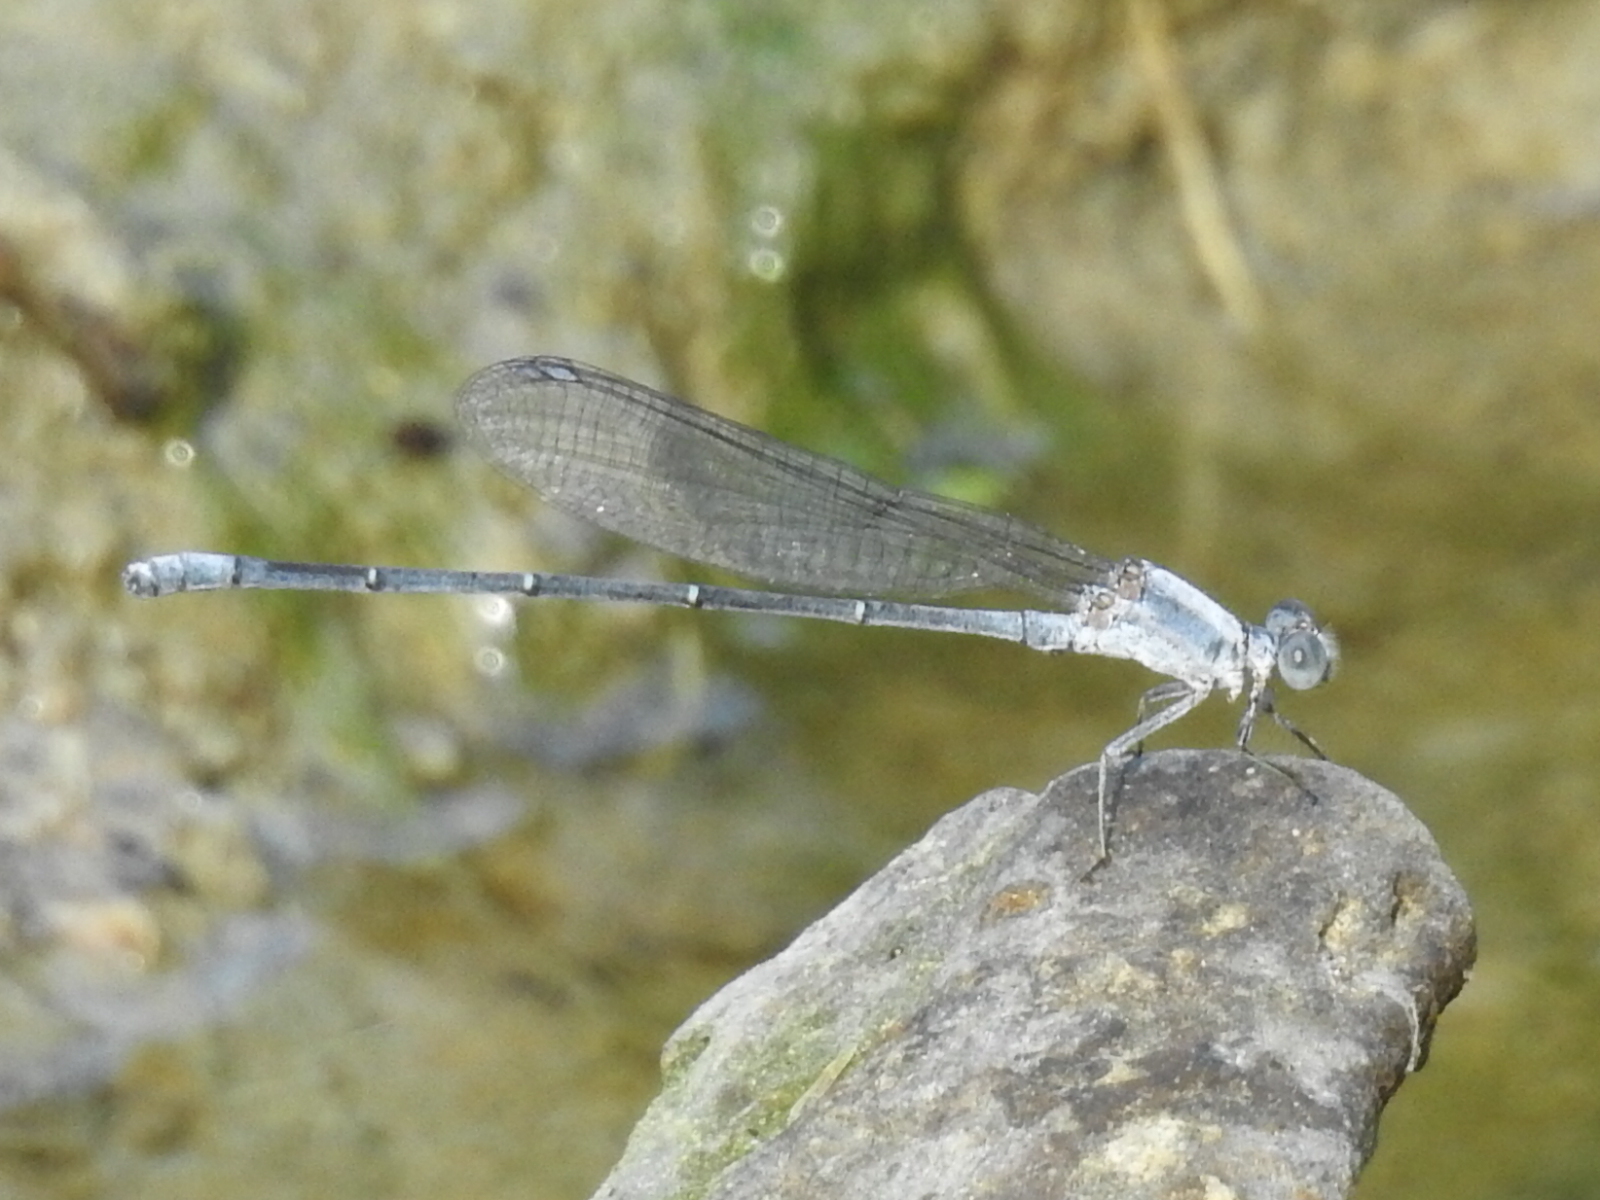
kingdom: Animalia
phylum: Arthropoda
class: Insecta
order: Odonata
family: Coenagrionidae
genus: Argia
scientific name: Argia moesta
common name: Powdered dancer
